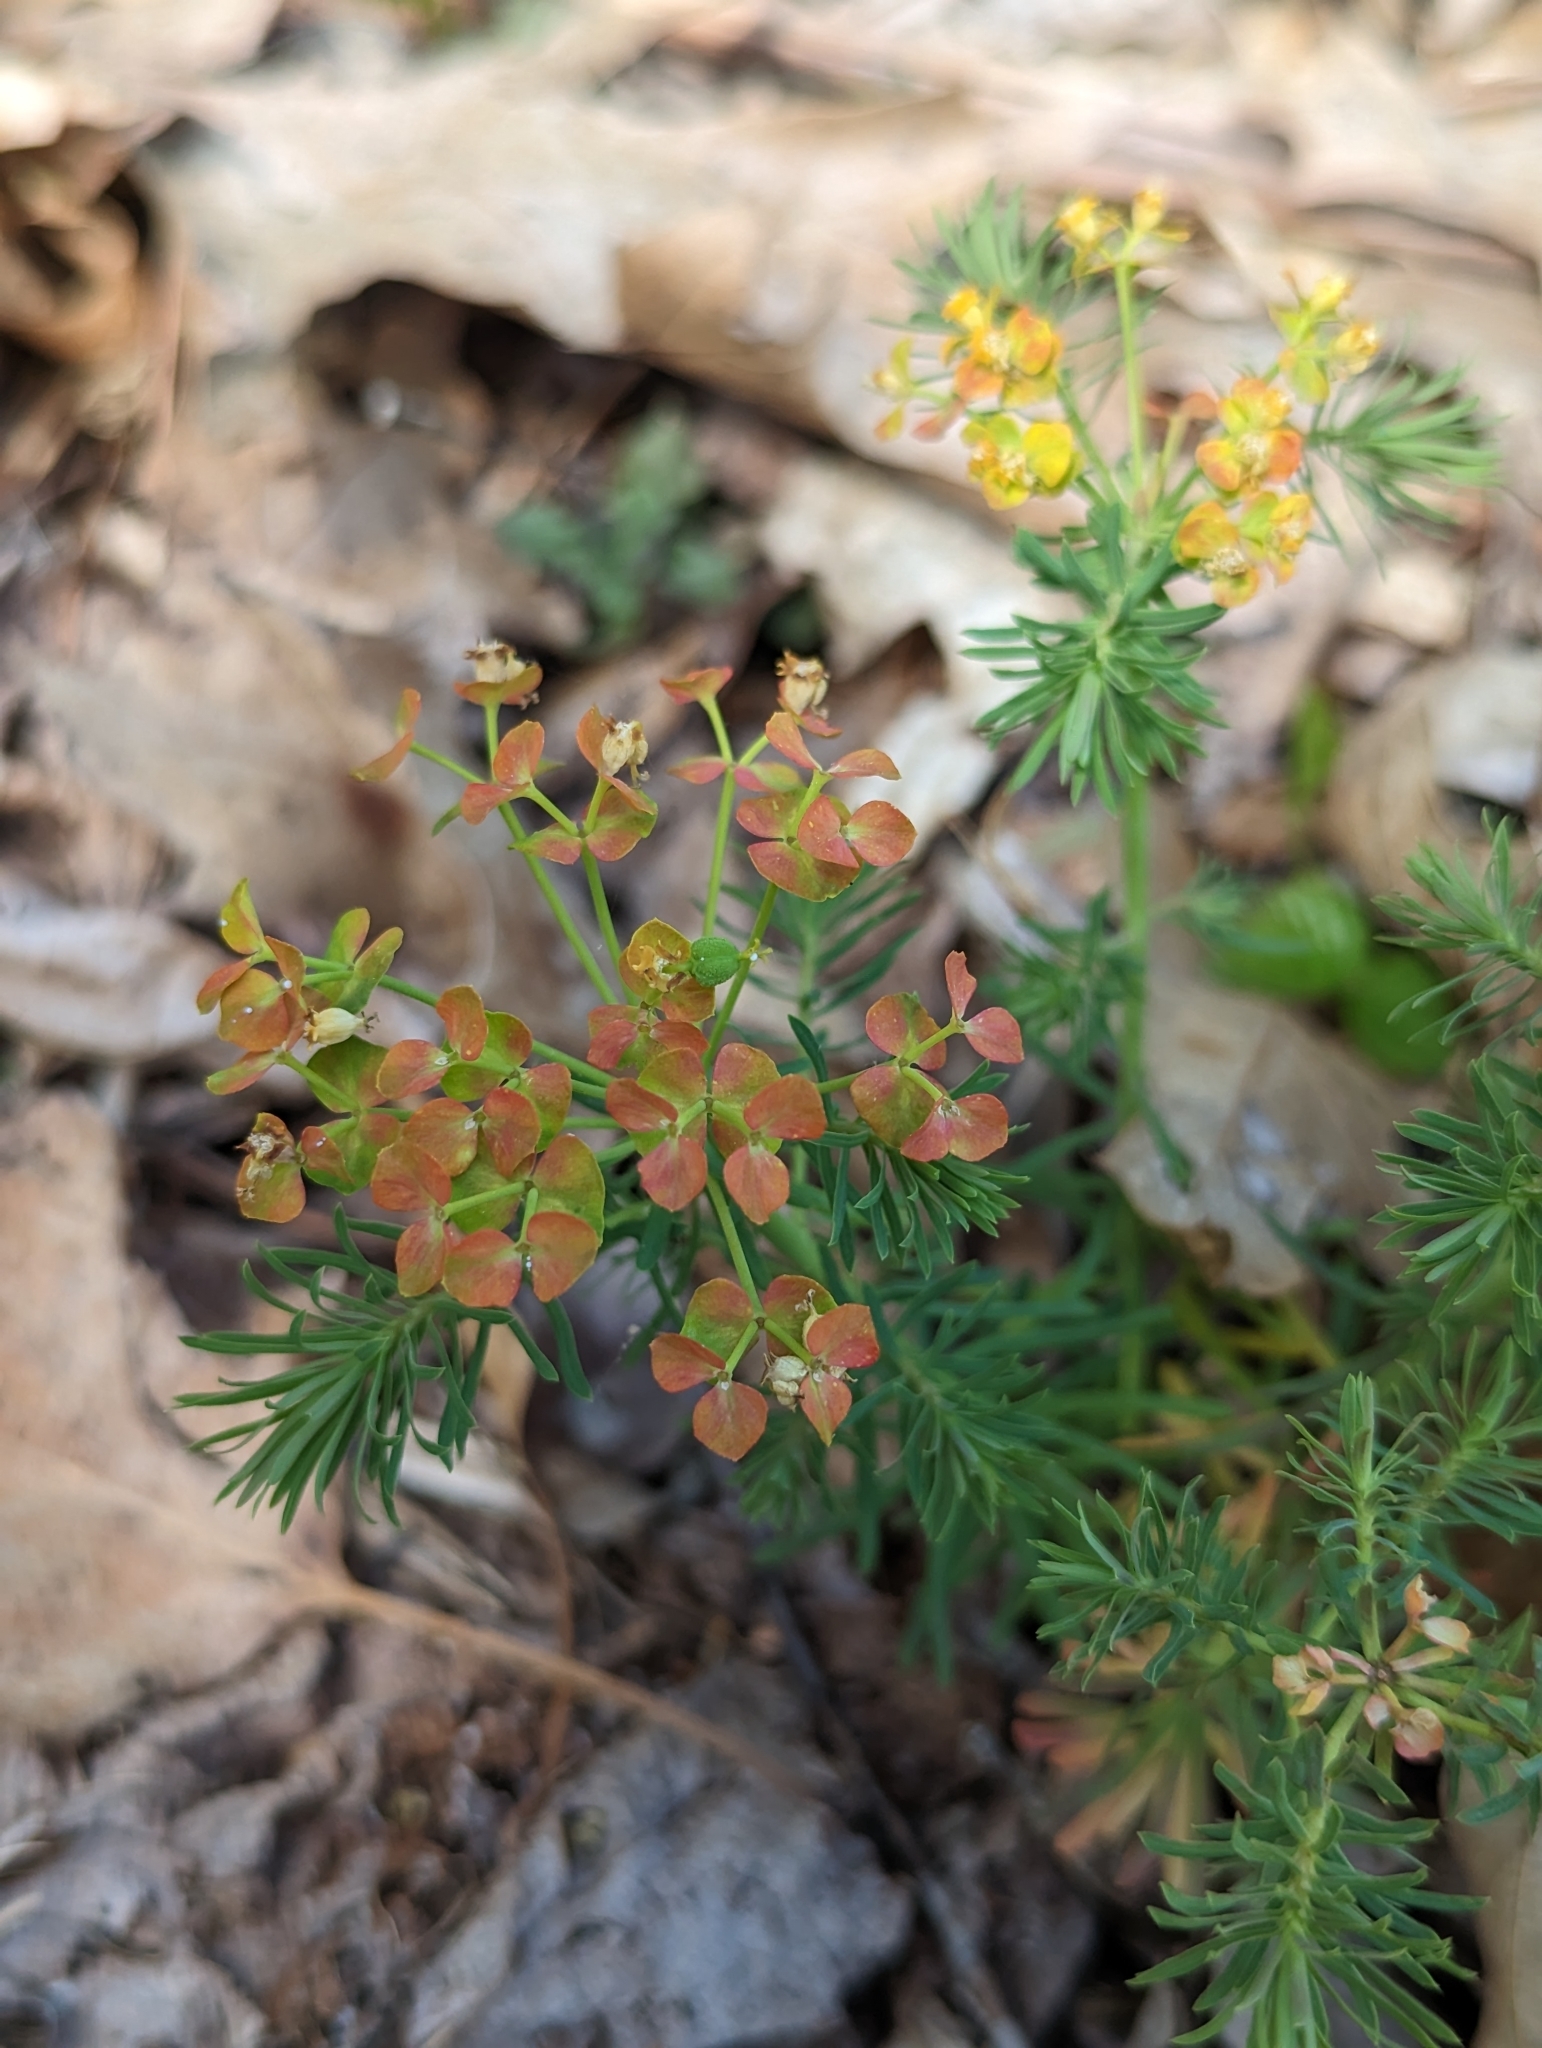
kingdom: Plantae
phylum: Tracheophyta
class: Magnoliopsida
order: Malpighiales
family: Euphorbiaceae
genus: Euphorbia
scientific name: Euphorbia cyparissias
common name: Cypress spurge
